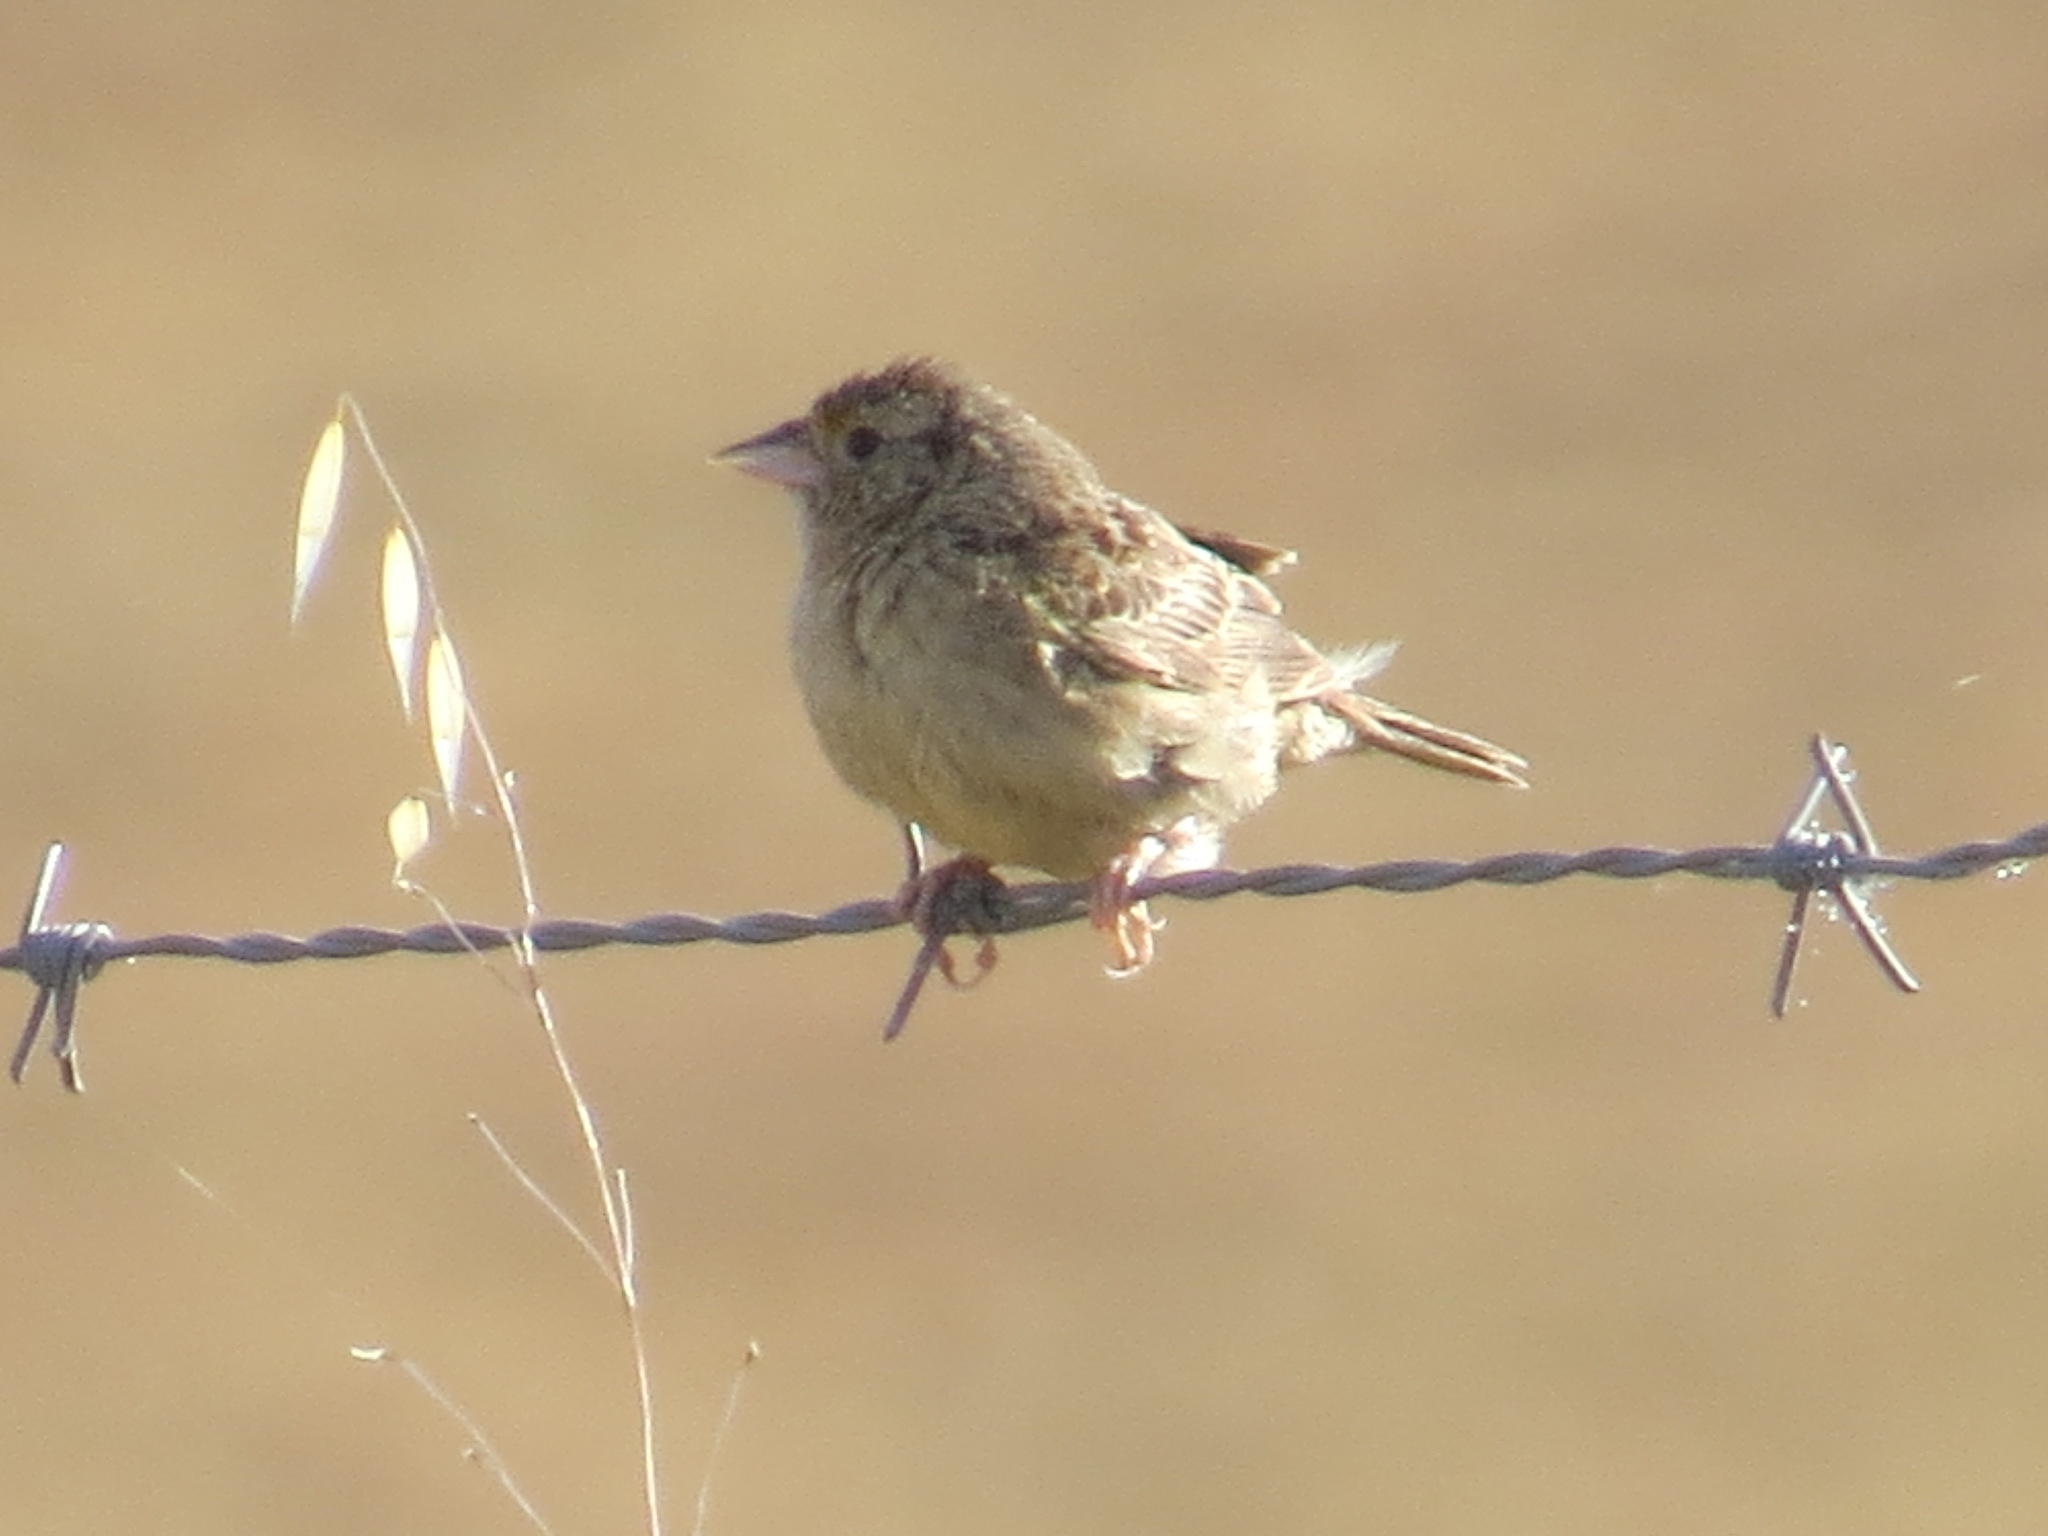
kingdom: Animalia
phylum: Chordata
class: Aves
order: Passeriformes
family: Passerellidae
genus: Ammodramus
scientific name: Ammodramus savannarum
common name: Grasshopper sparrow
